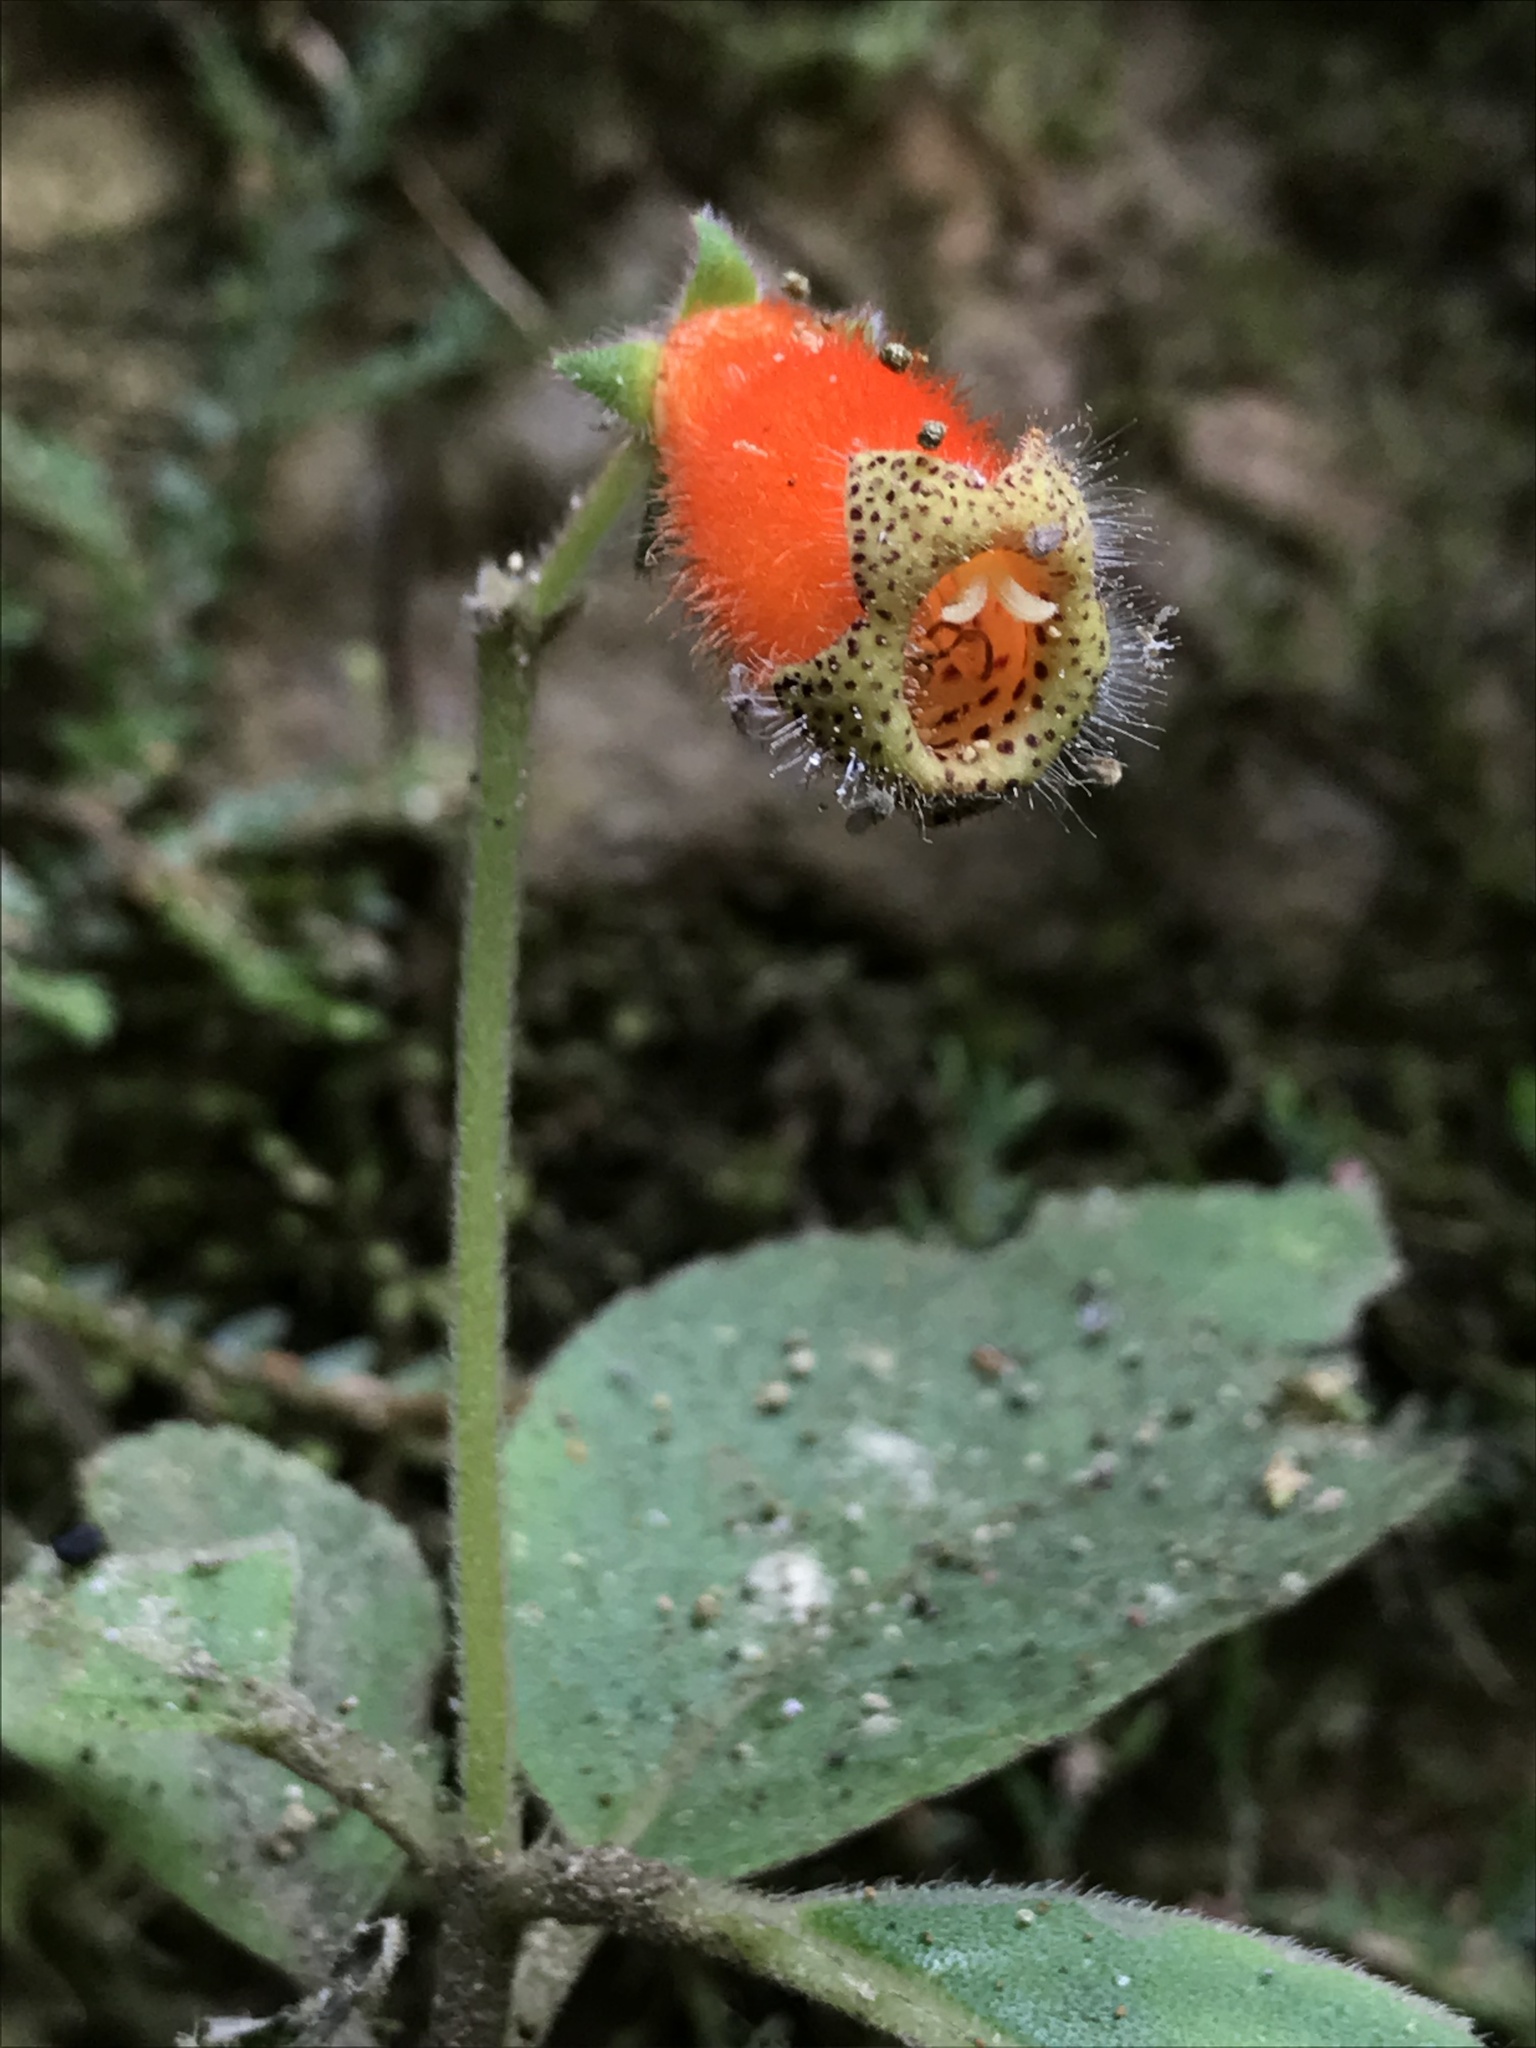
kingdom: Plantae
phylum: Tracheophyta
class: Magnoliopsida
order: Lamiales
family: Gesneriaceae
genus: Kohleria
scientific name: Kohleria stuebeliana
